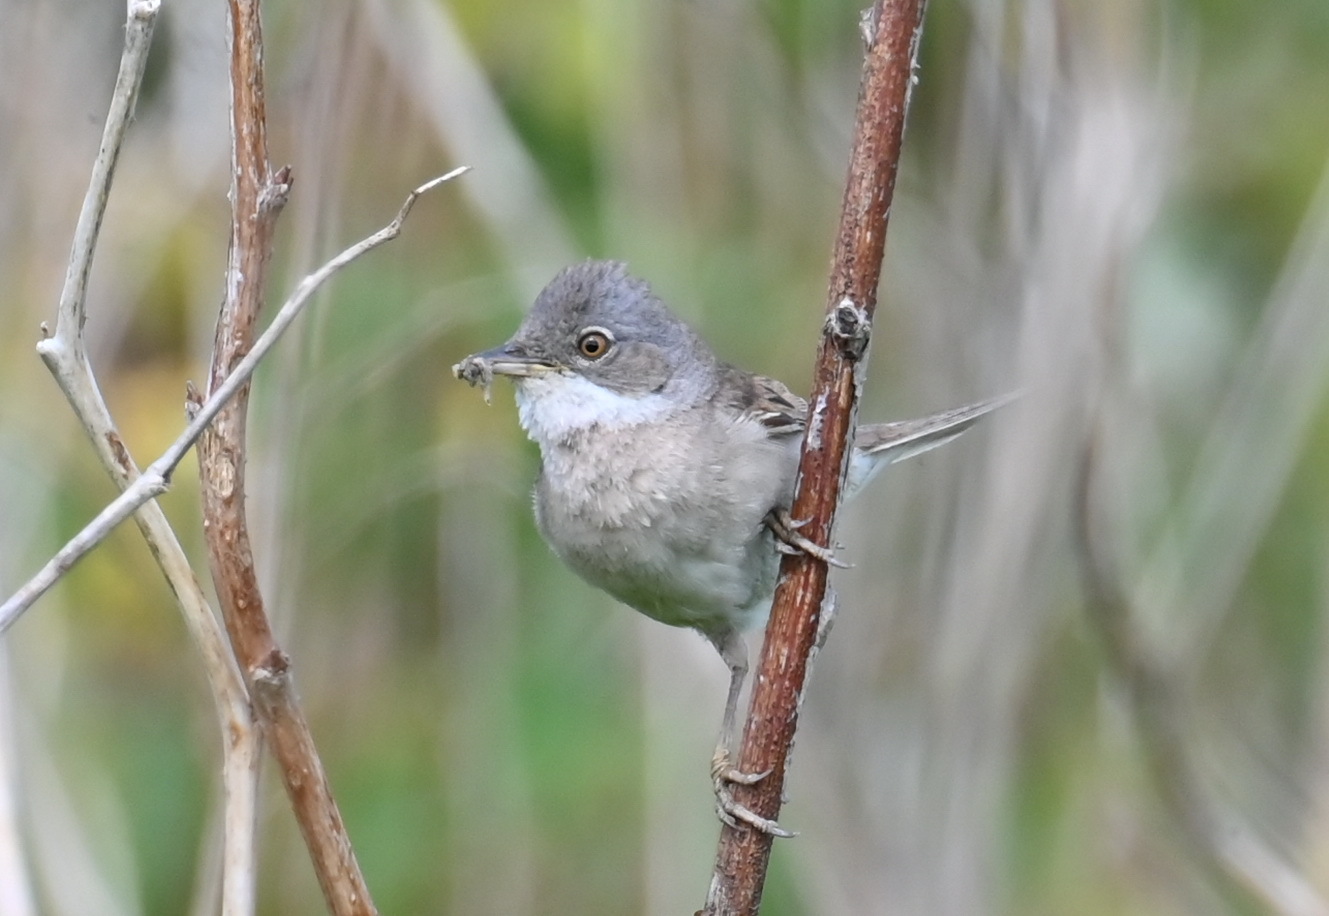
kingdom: Animalia
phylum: Chordata
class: Aves
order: Passeriformes
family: Sylviidae
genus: Sylvia
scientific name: Sylvia communis
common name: Common whitethroat
